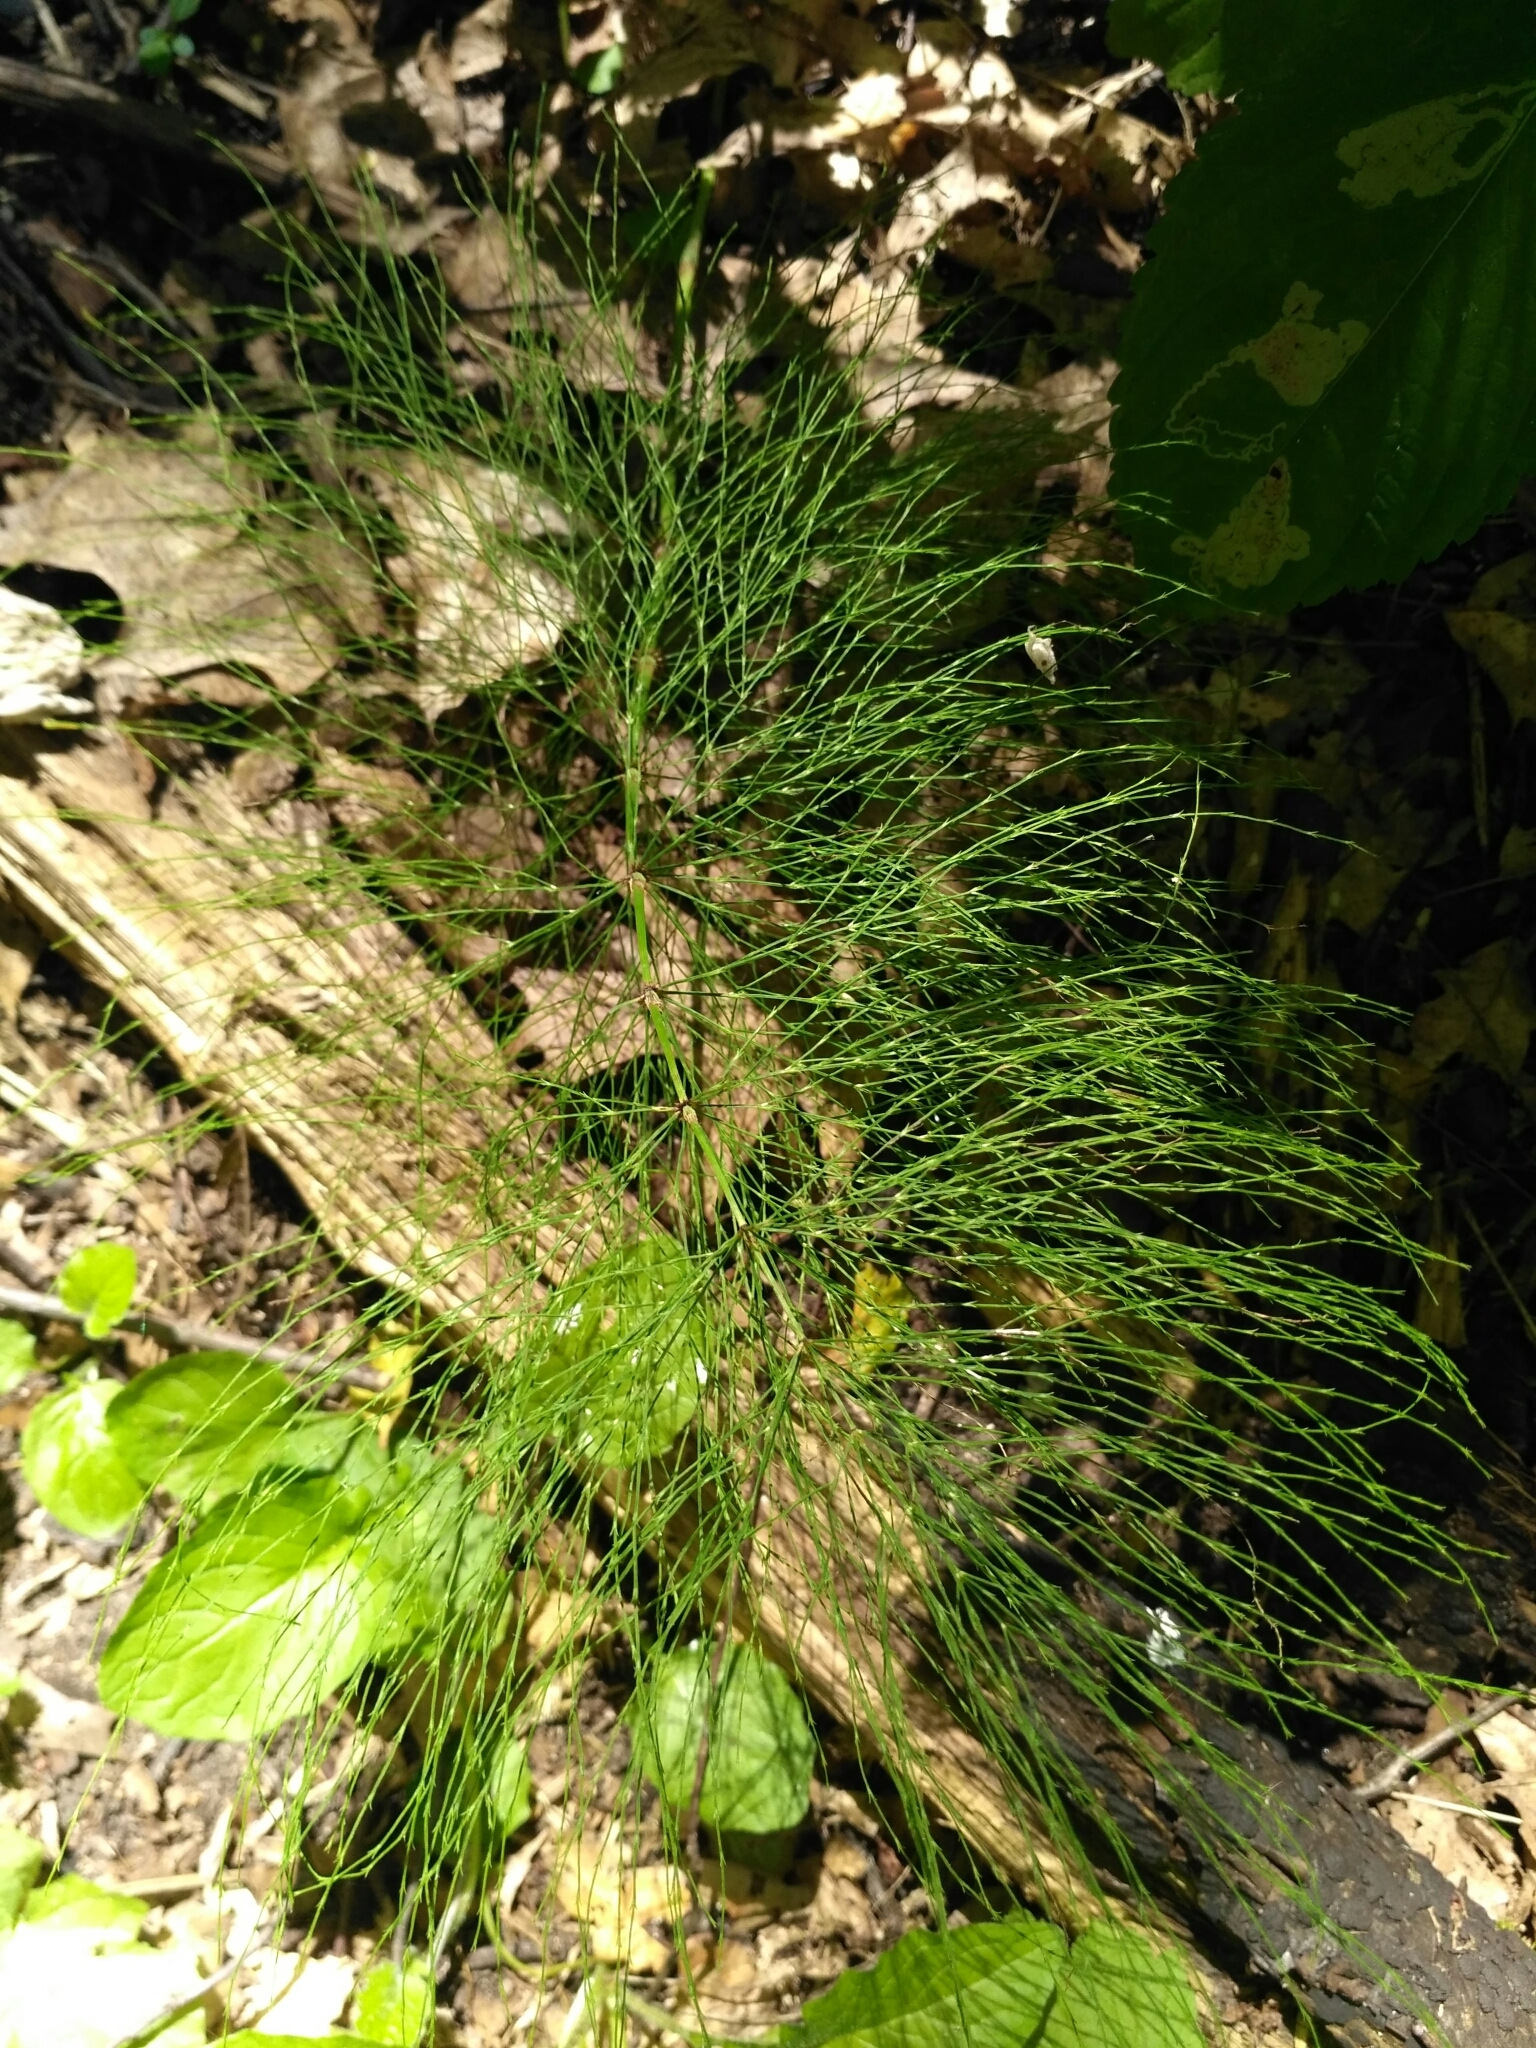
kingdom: Plantae
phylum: Tracheophyta
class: Polypodiopsida
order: Equisetales
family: Equisetaceae
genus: Equisetum
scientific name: Equisetum sylvaticum
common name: Wood horsetail
